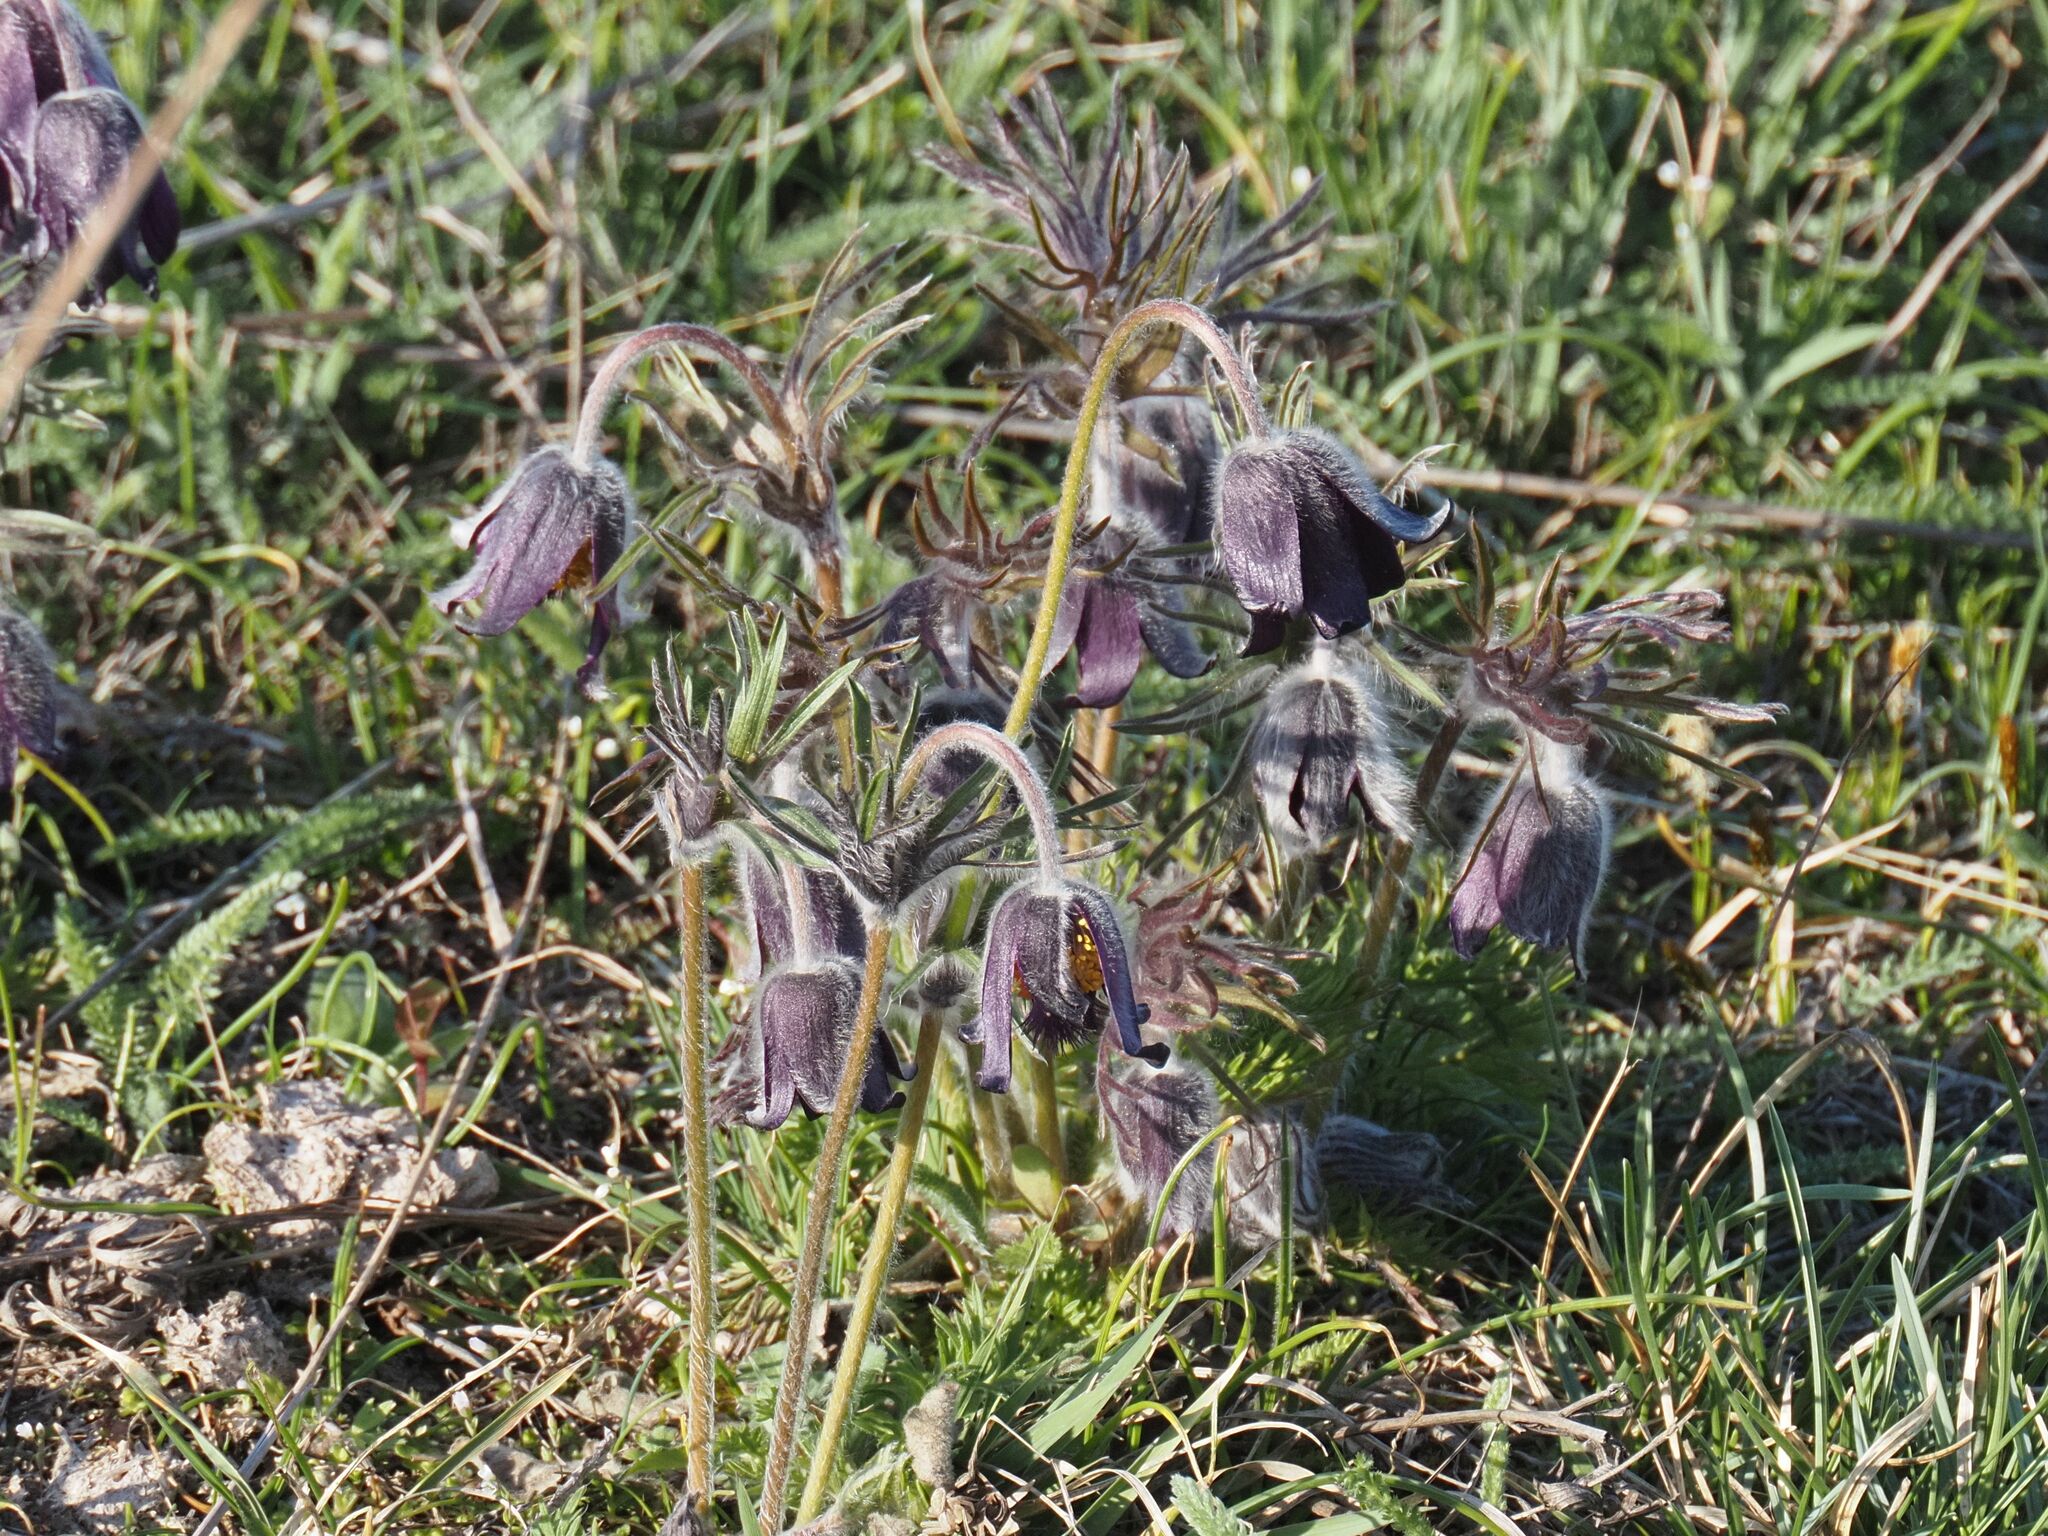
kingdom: Plantae
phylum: Tracheophyta
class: Magnoliopsida
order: Ranunculales
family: Ranunculaceae
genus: Pulsatilla
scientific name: Pulsatilla pratensis
